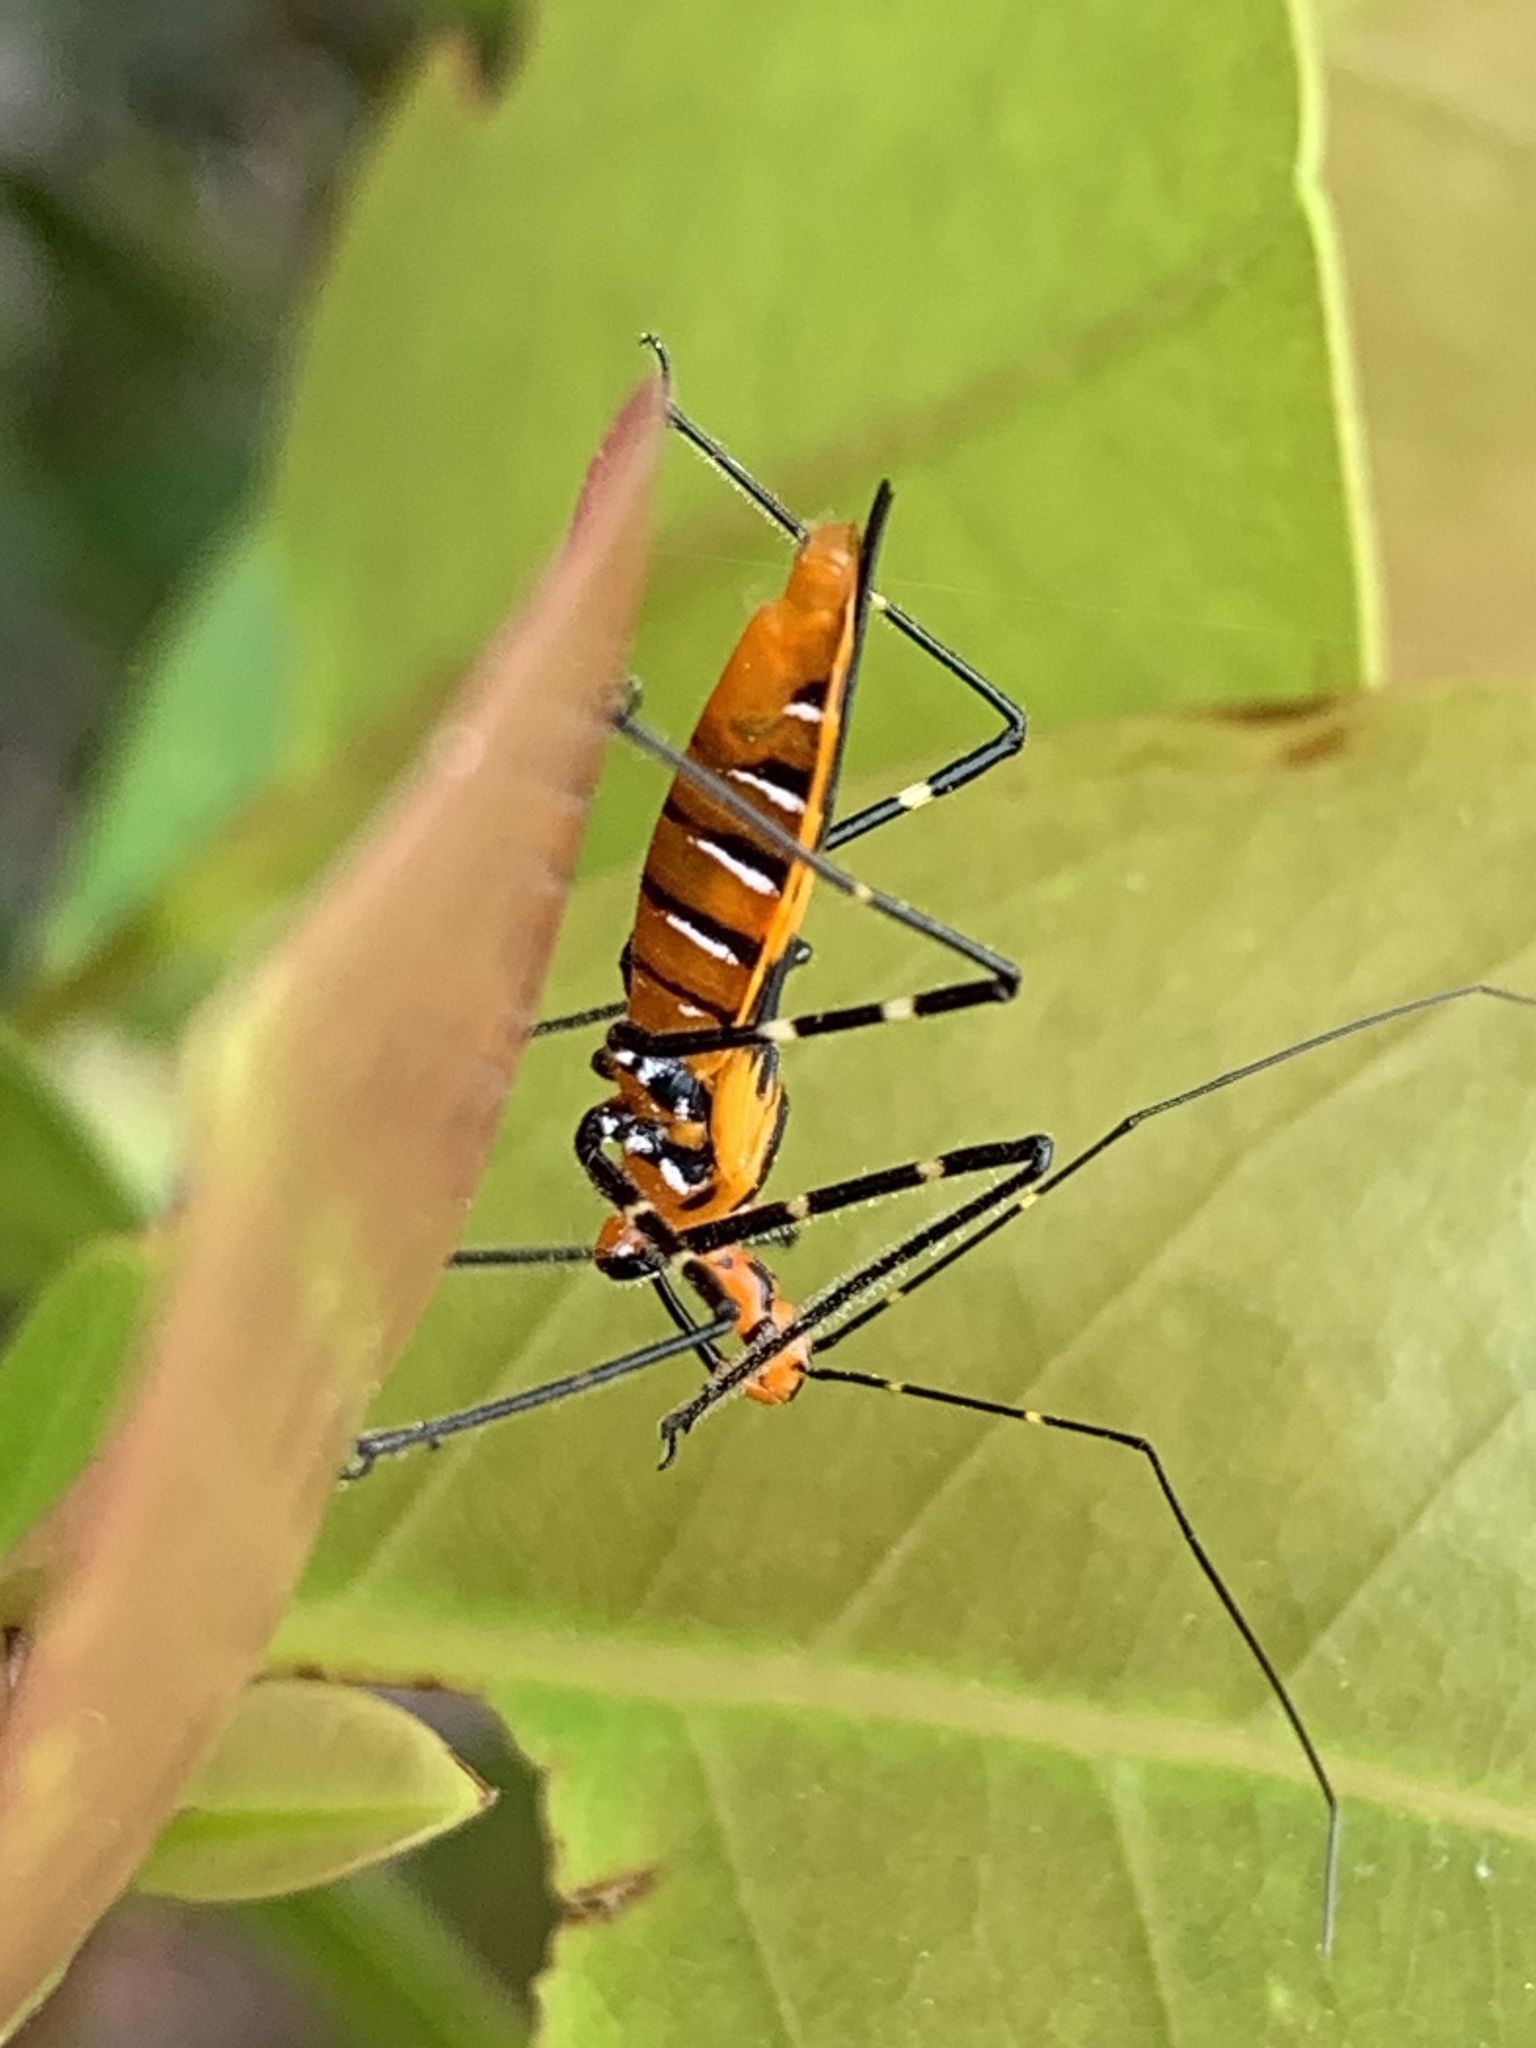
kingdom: Animalia
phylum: Arthropoda
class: Insecta
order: Hemiptera
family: Reduviidae
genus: Zelus
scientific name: Zelus longipes
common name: Milkweed assassin bug
